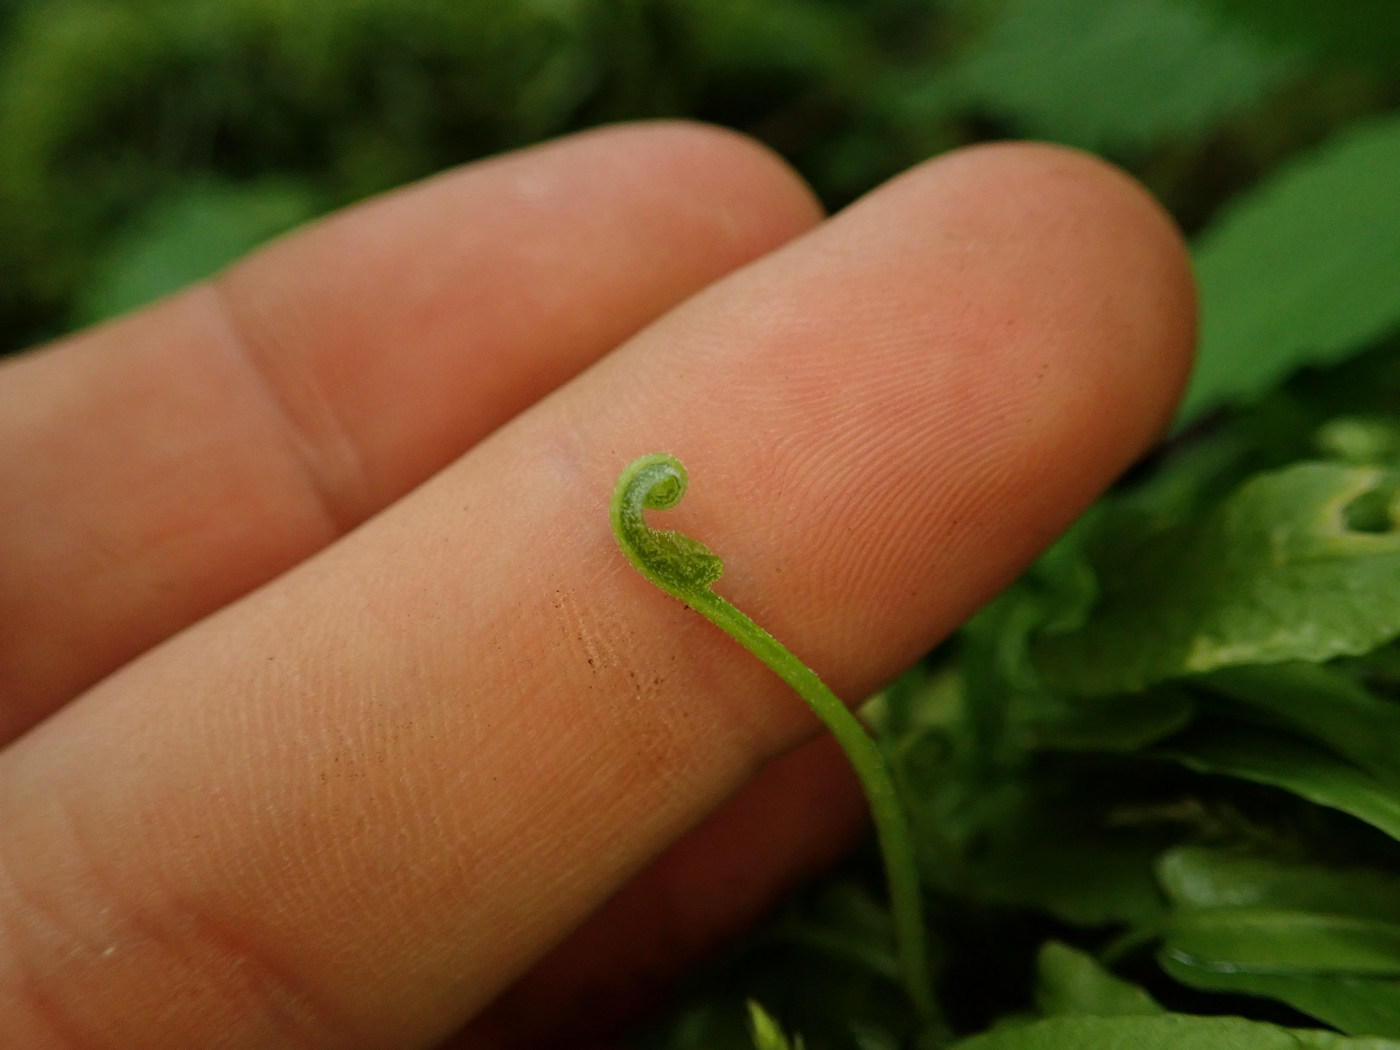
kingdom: Plantae
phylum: Tracheophyta
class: Polypodiopsida
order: Polypodiales
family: Aspleniaceae
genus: Asplenium
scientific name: Asplenium rhizophyllum
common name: Walking fern
